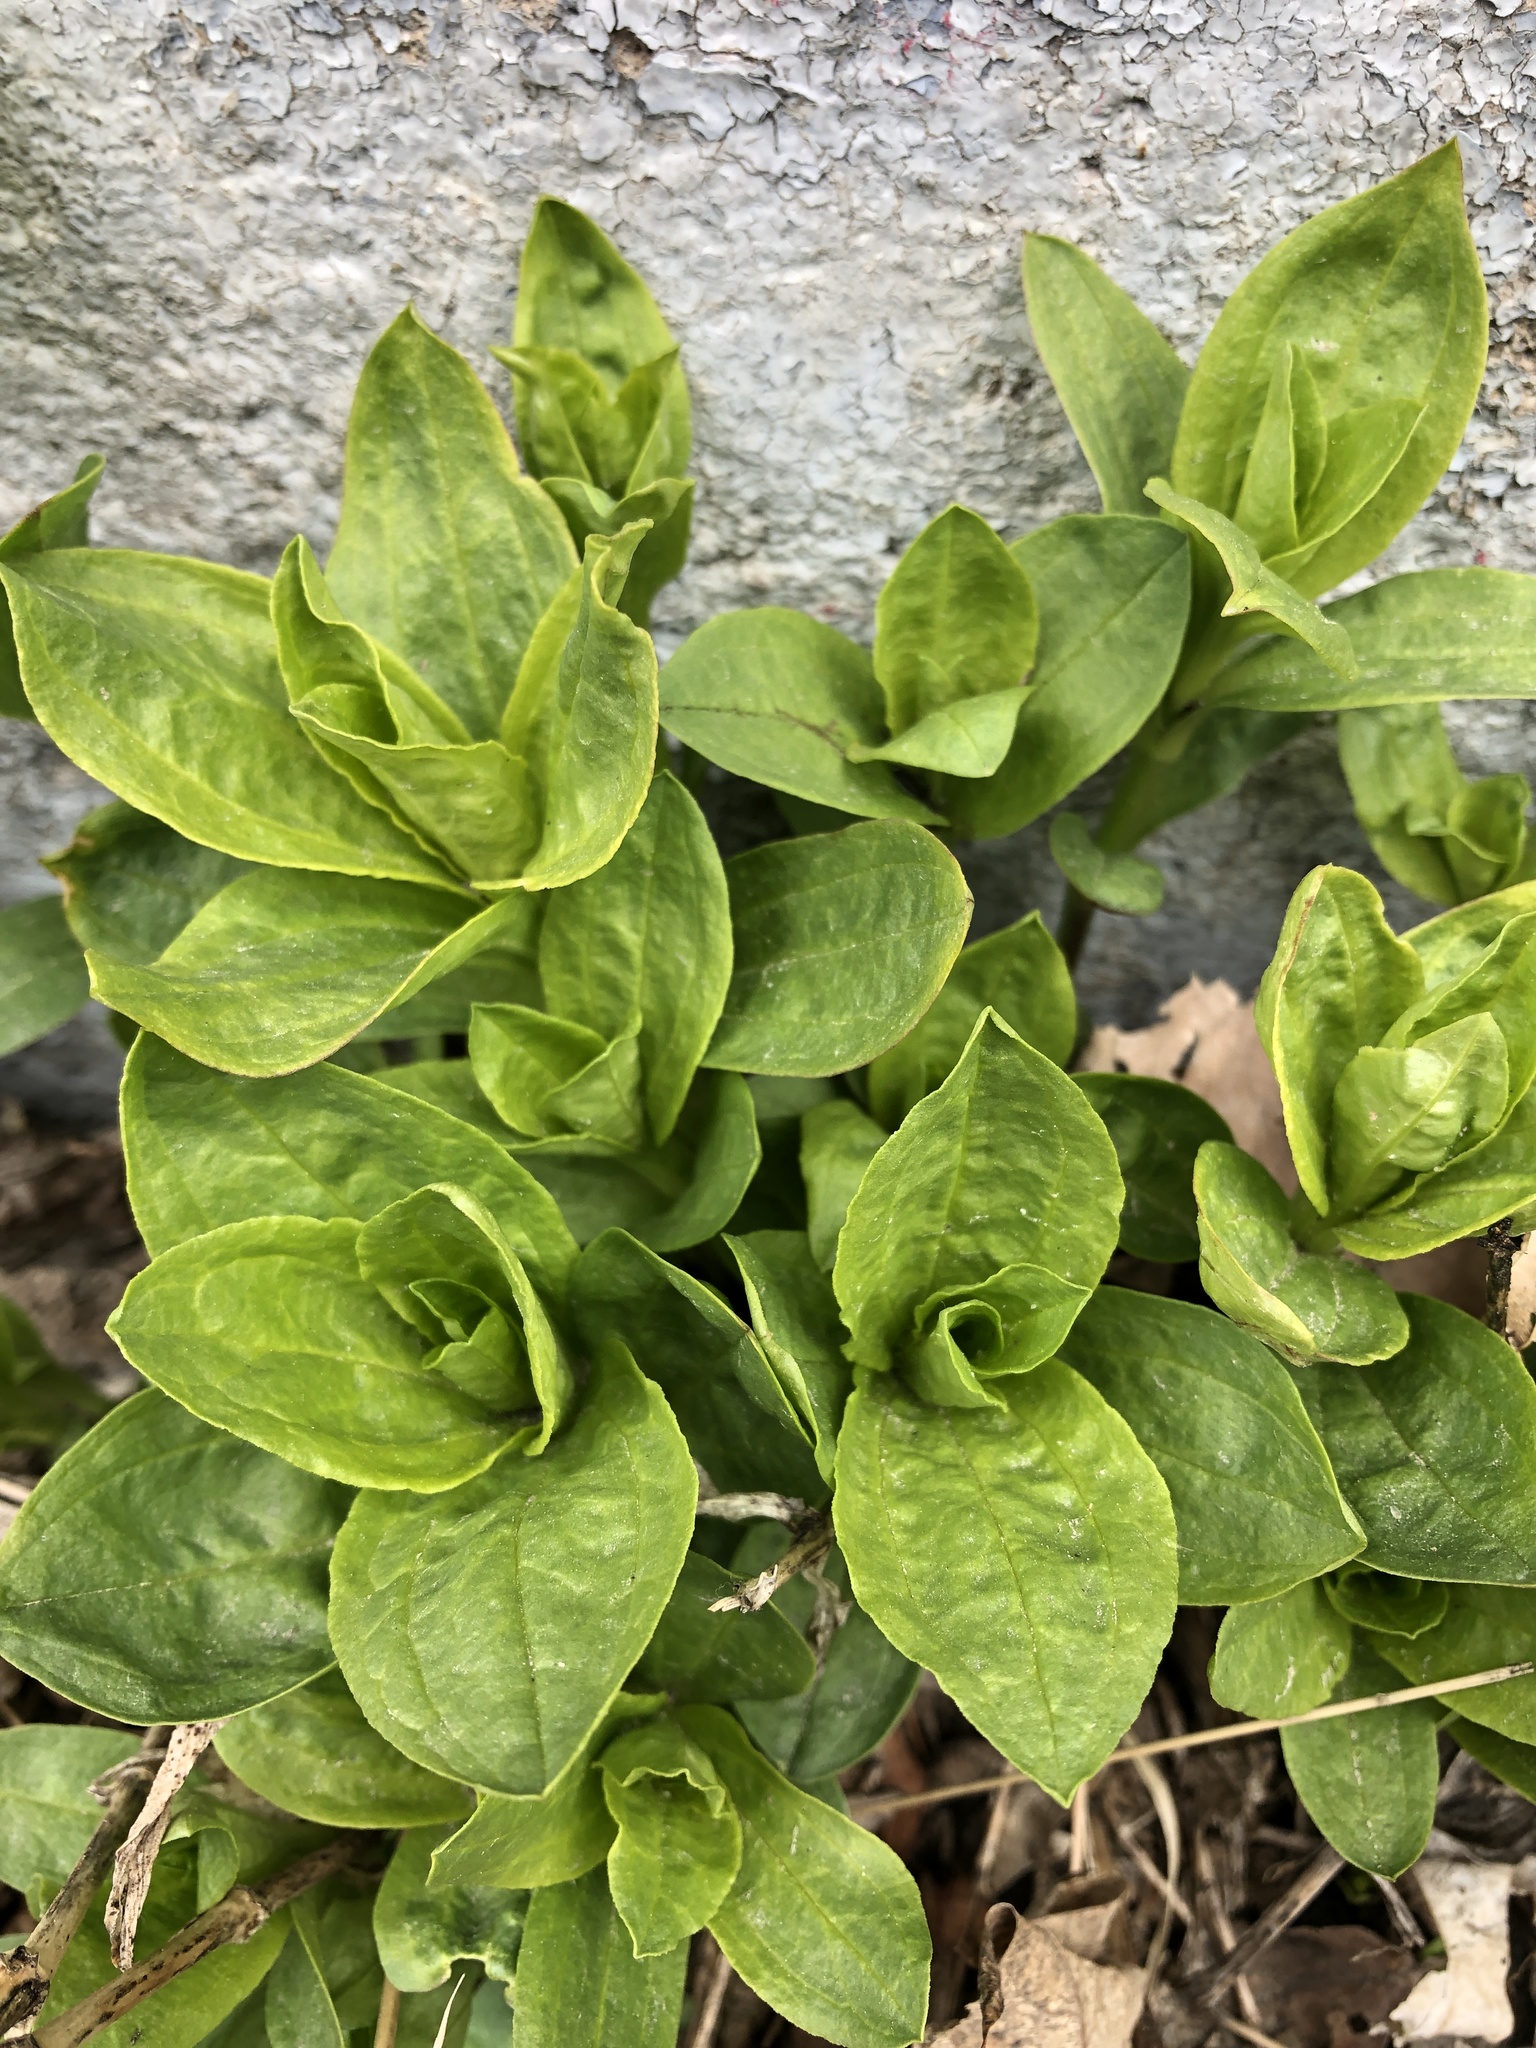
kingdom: Plantae
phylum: Tracheophyta
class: Magnoliopsida
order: Caryophyllales
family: Caryophyllaceae
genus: Saponaria
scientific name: Saponaria officinalis
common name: Soapwort
